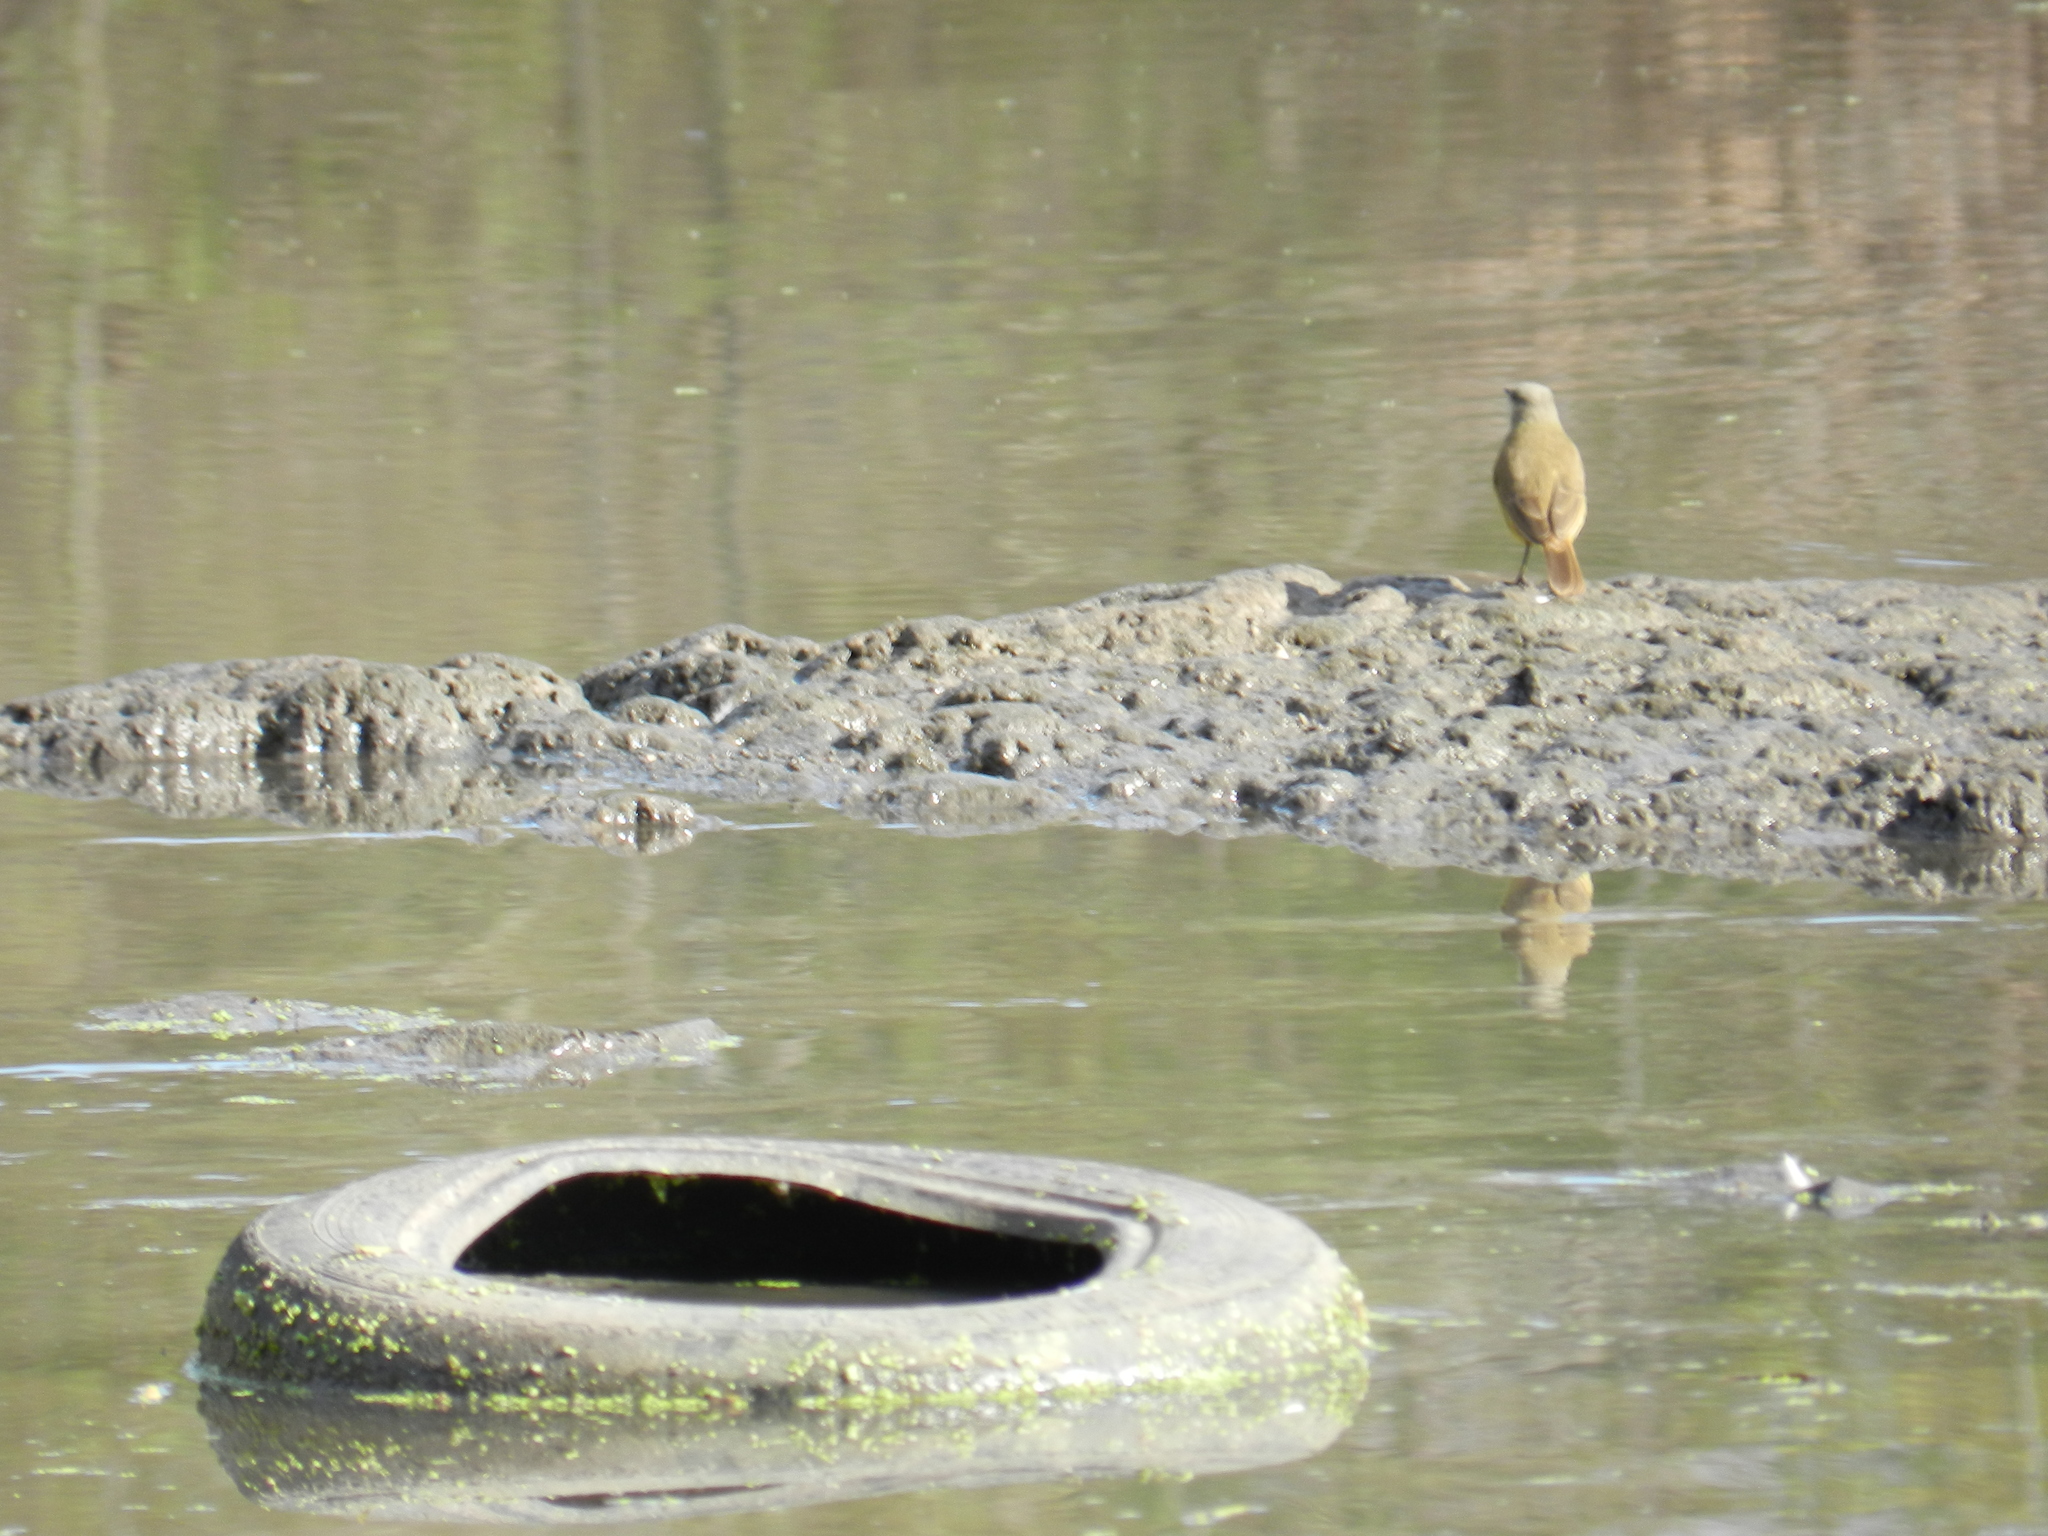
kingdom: Animalia
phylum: Chordata
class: Aves
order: Passeriformes
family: Tyrannidae
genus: Machetornis
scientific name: Machetornis rixosa
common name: Cattle tyrant
